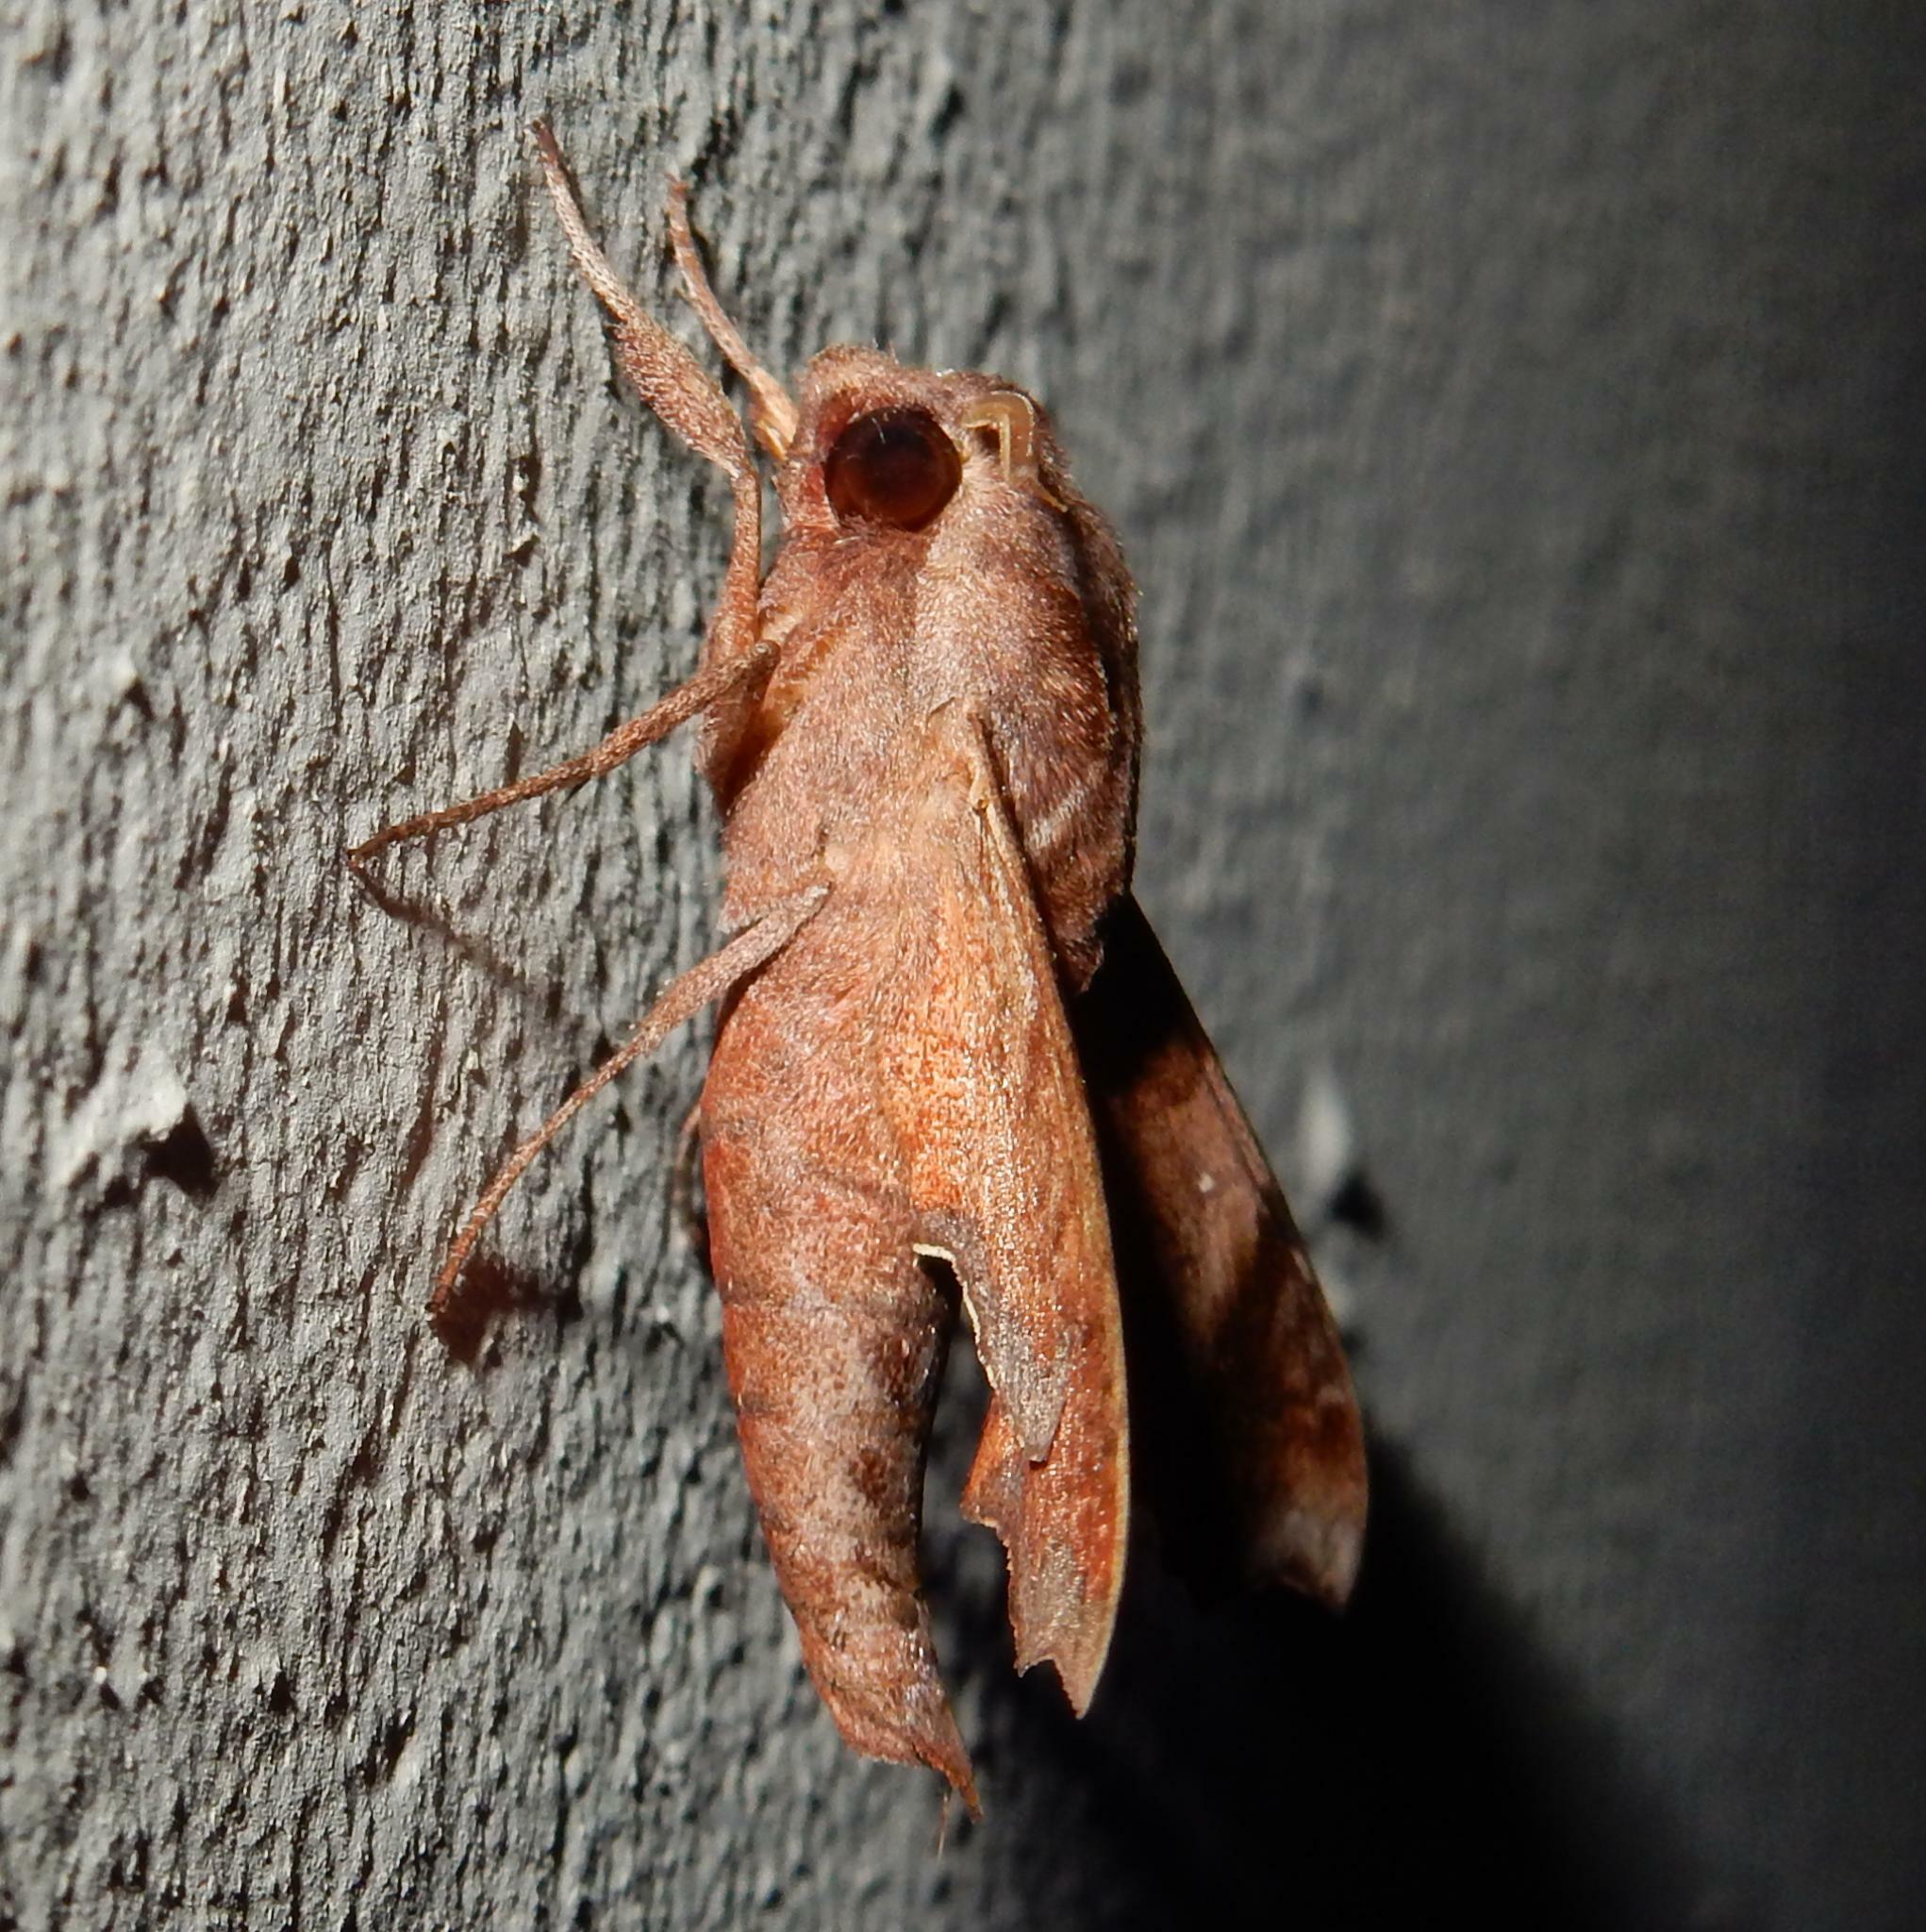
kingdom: Animalia
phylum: Arthropoda
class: Insecta
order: Lepidoptera
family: Sphingidae
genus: Temnora
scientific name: Temnora pylas
